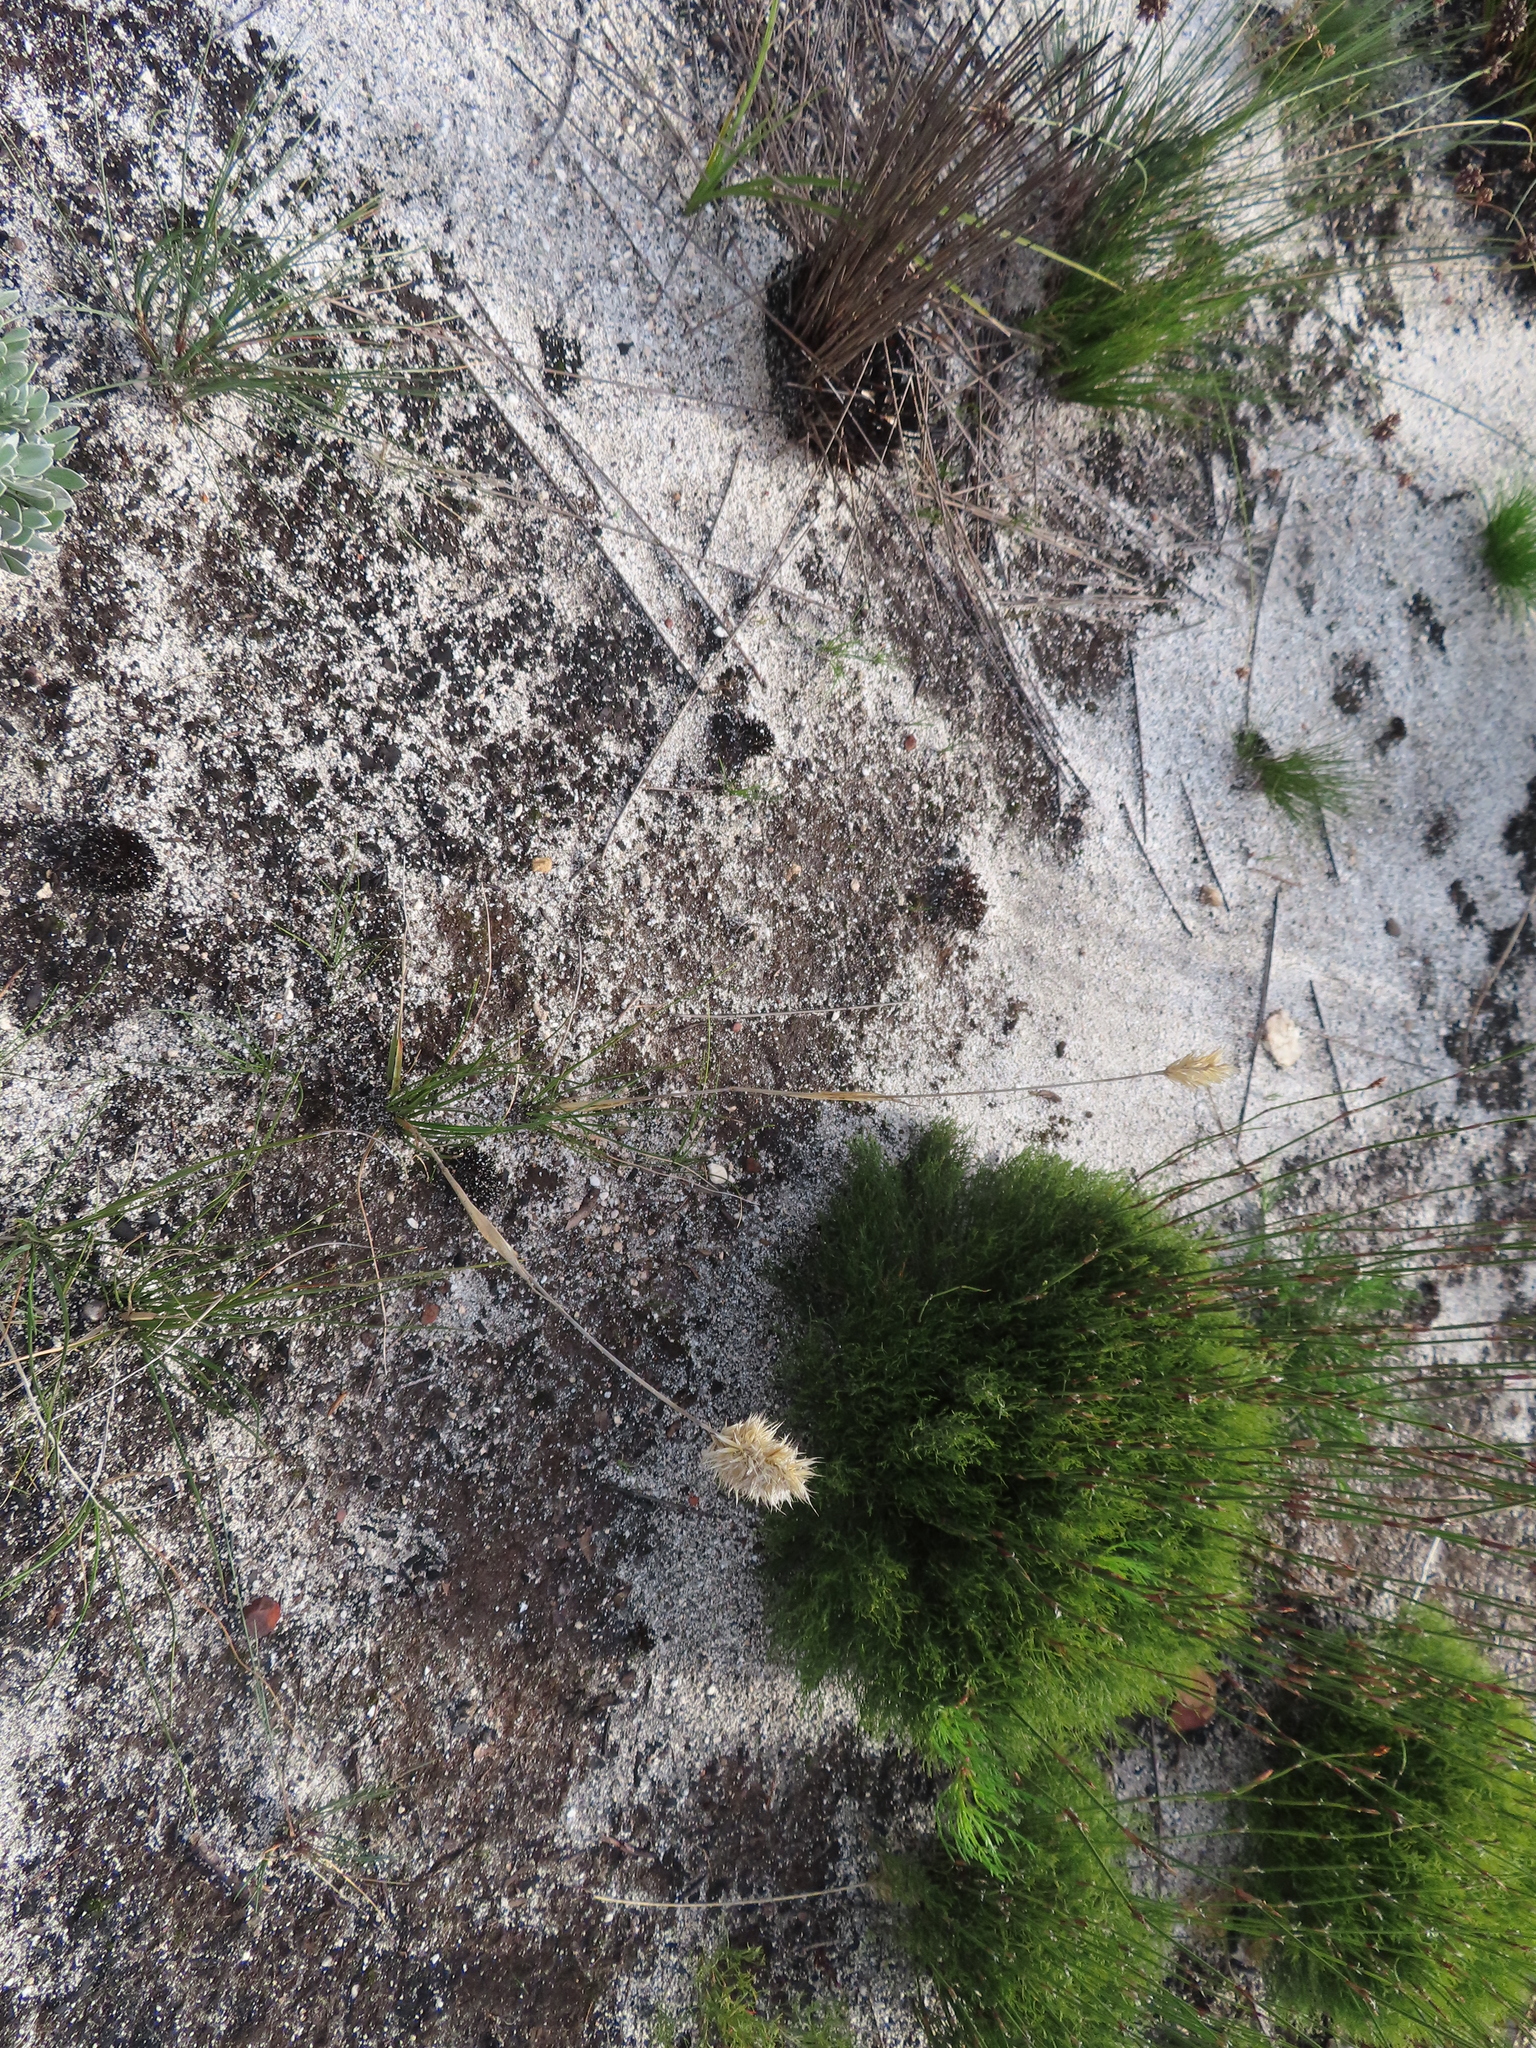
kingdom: Plantae
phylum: Tracheophyta
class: Liliopsida
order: Poales
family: Poaceae
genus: Geochloa
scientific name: Geochloa lupulina
